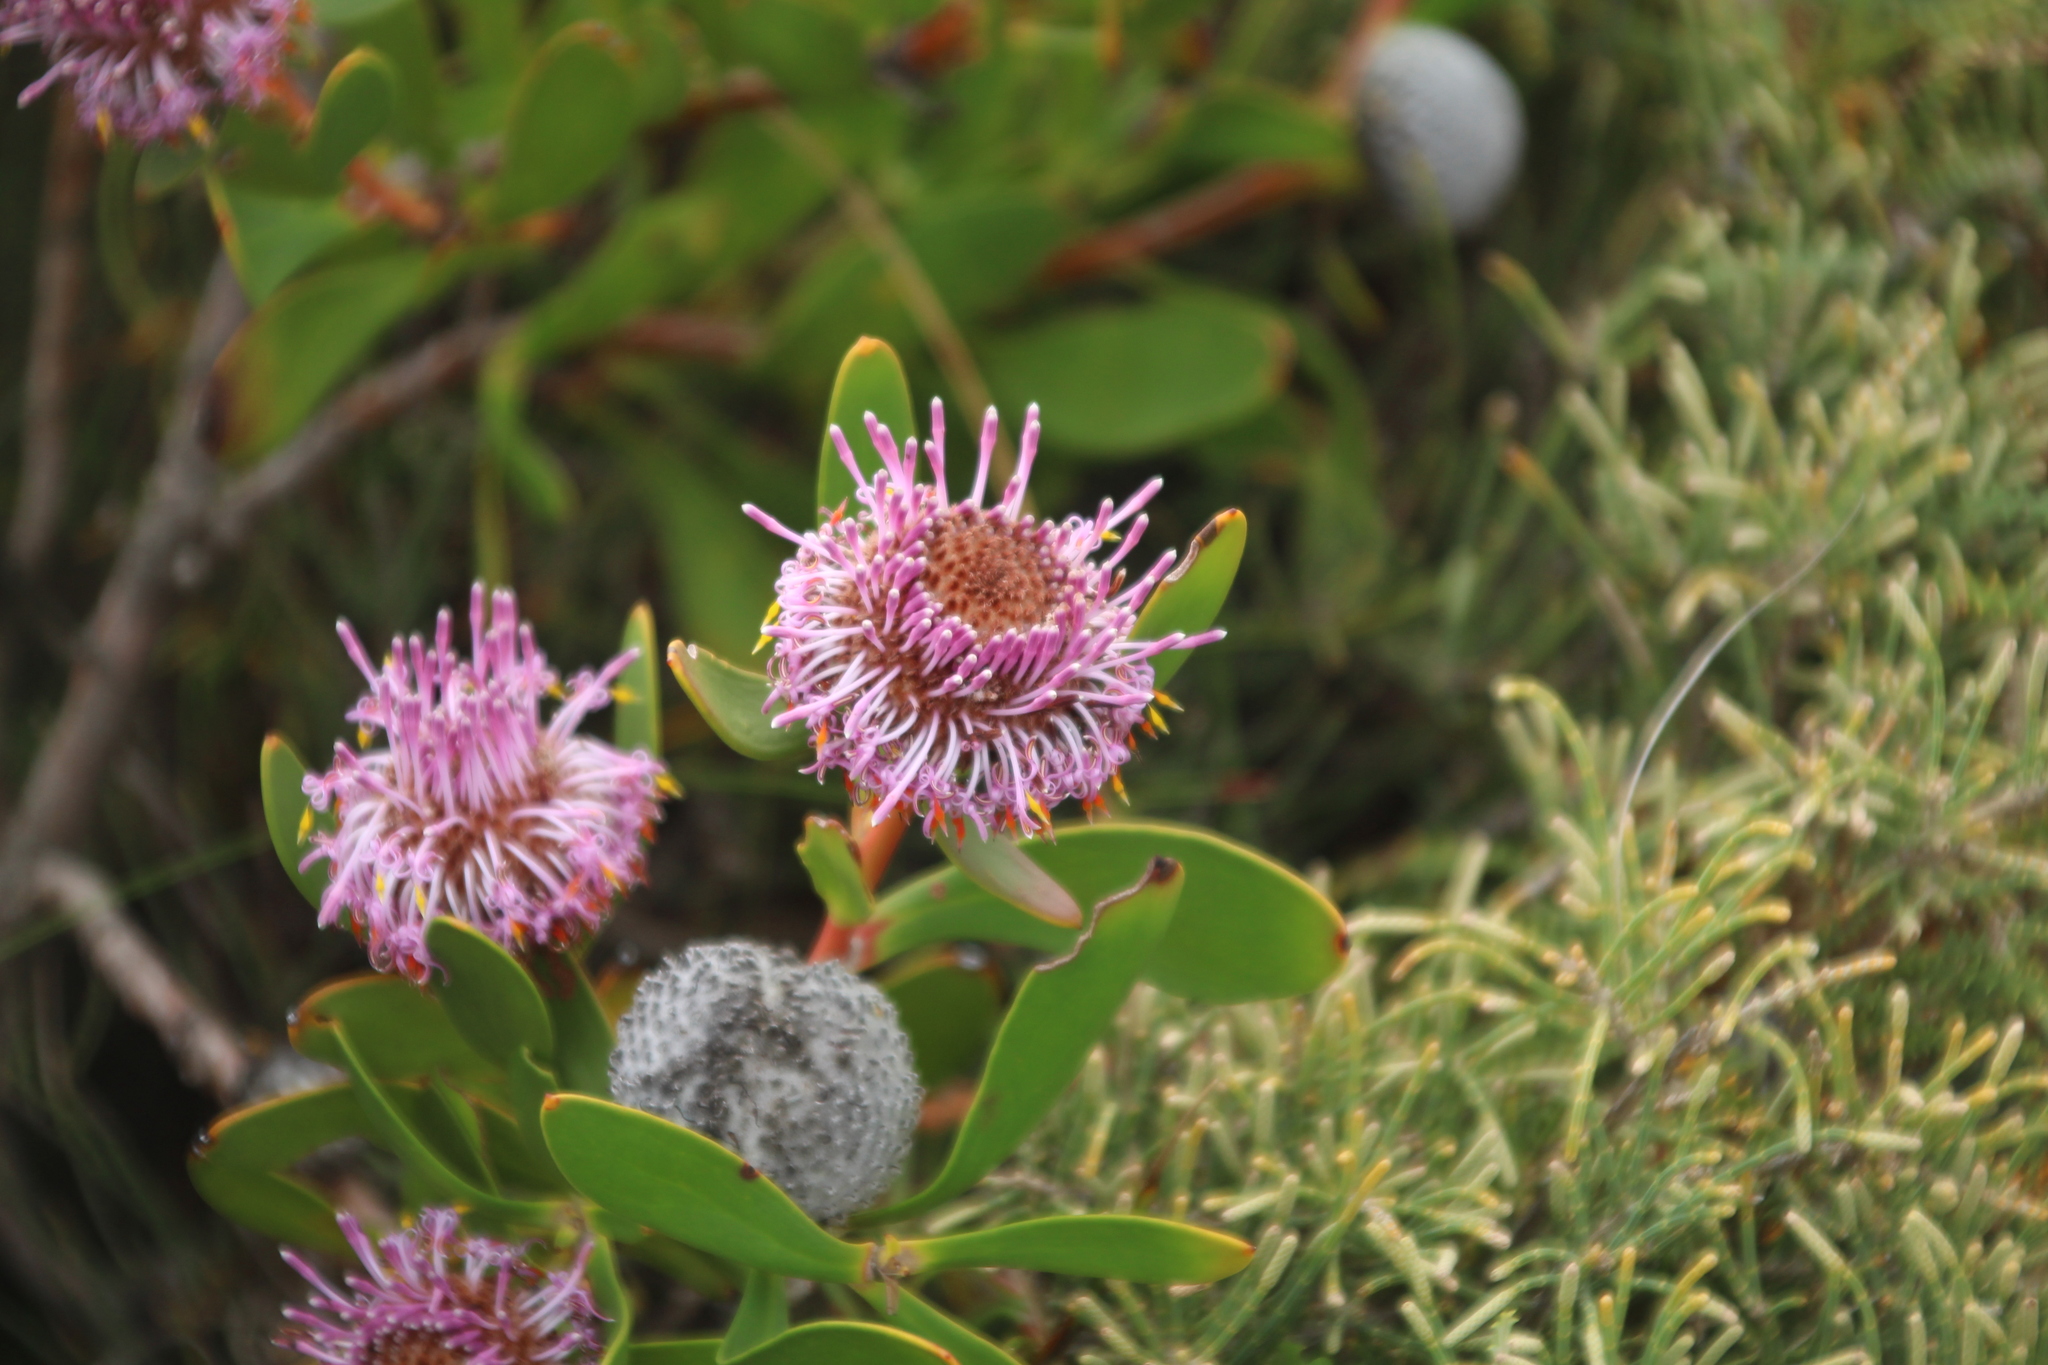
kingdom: Plantae
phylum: Tracheophyta
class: Magnoliopsida
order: Proteales
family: Proteaceae
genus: Isopogon
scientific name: Isopogon cuneatus
